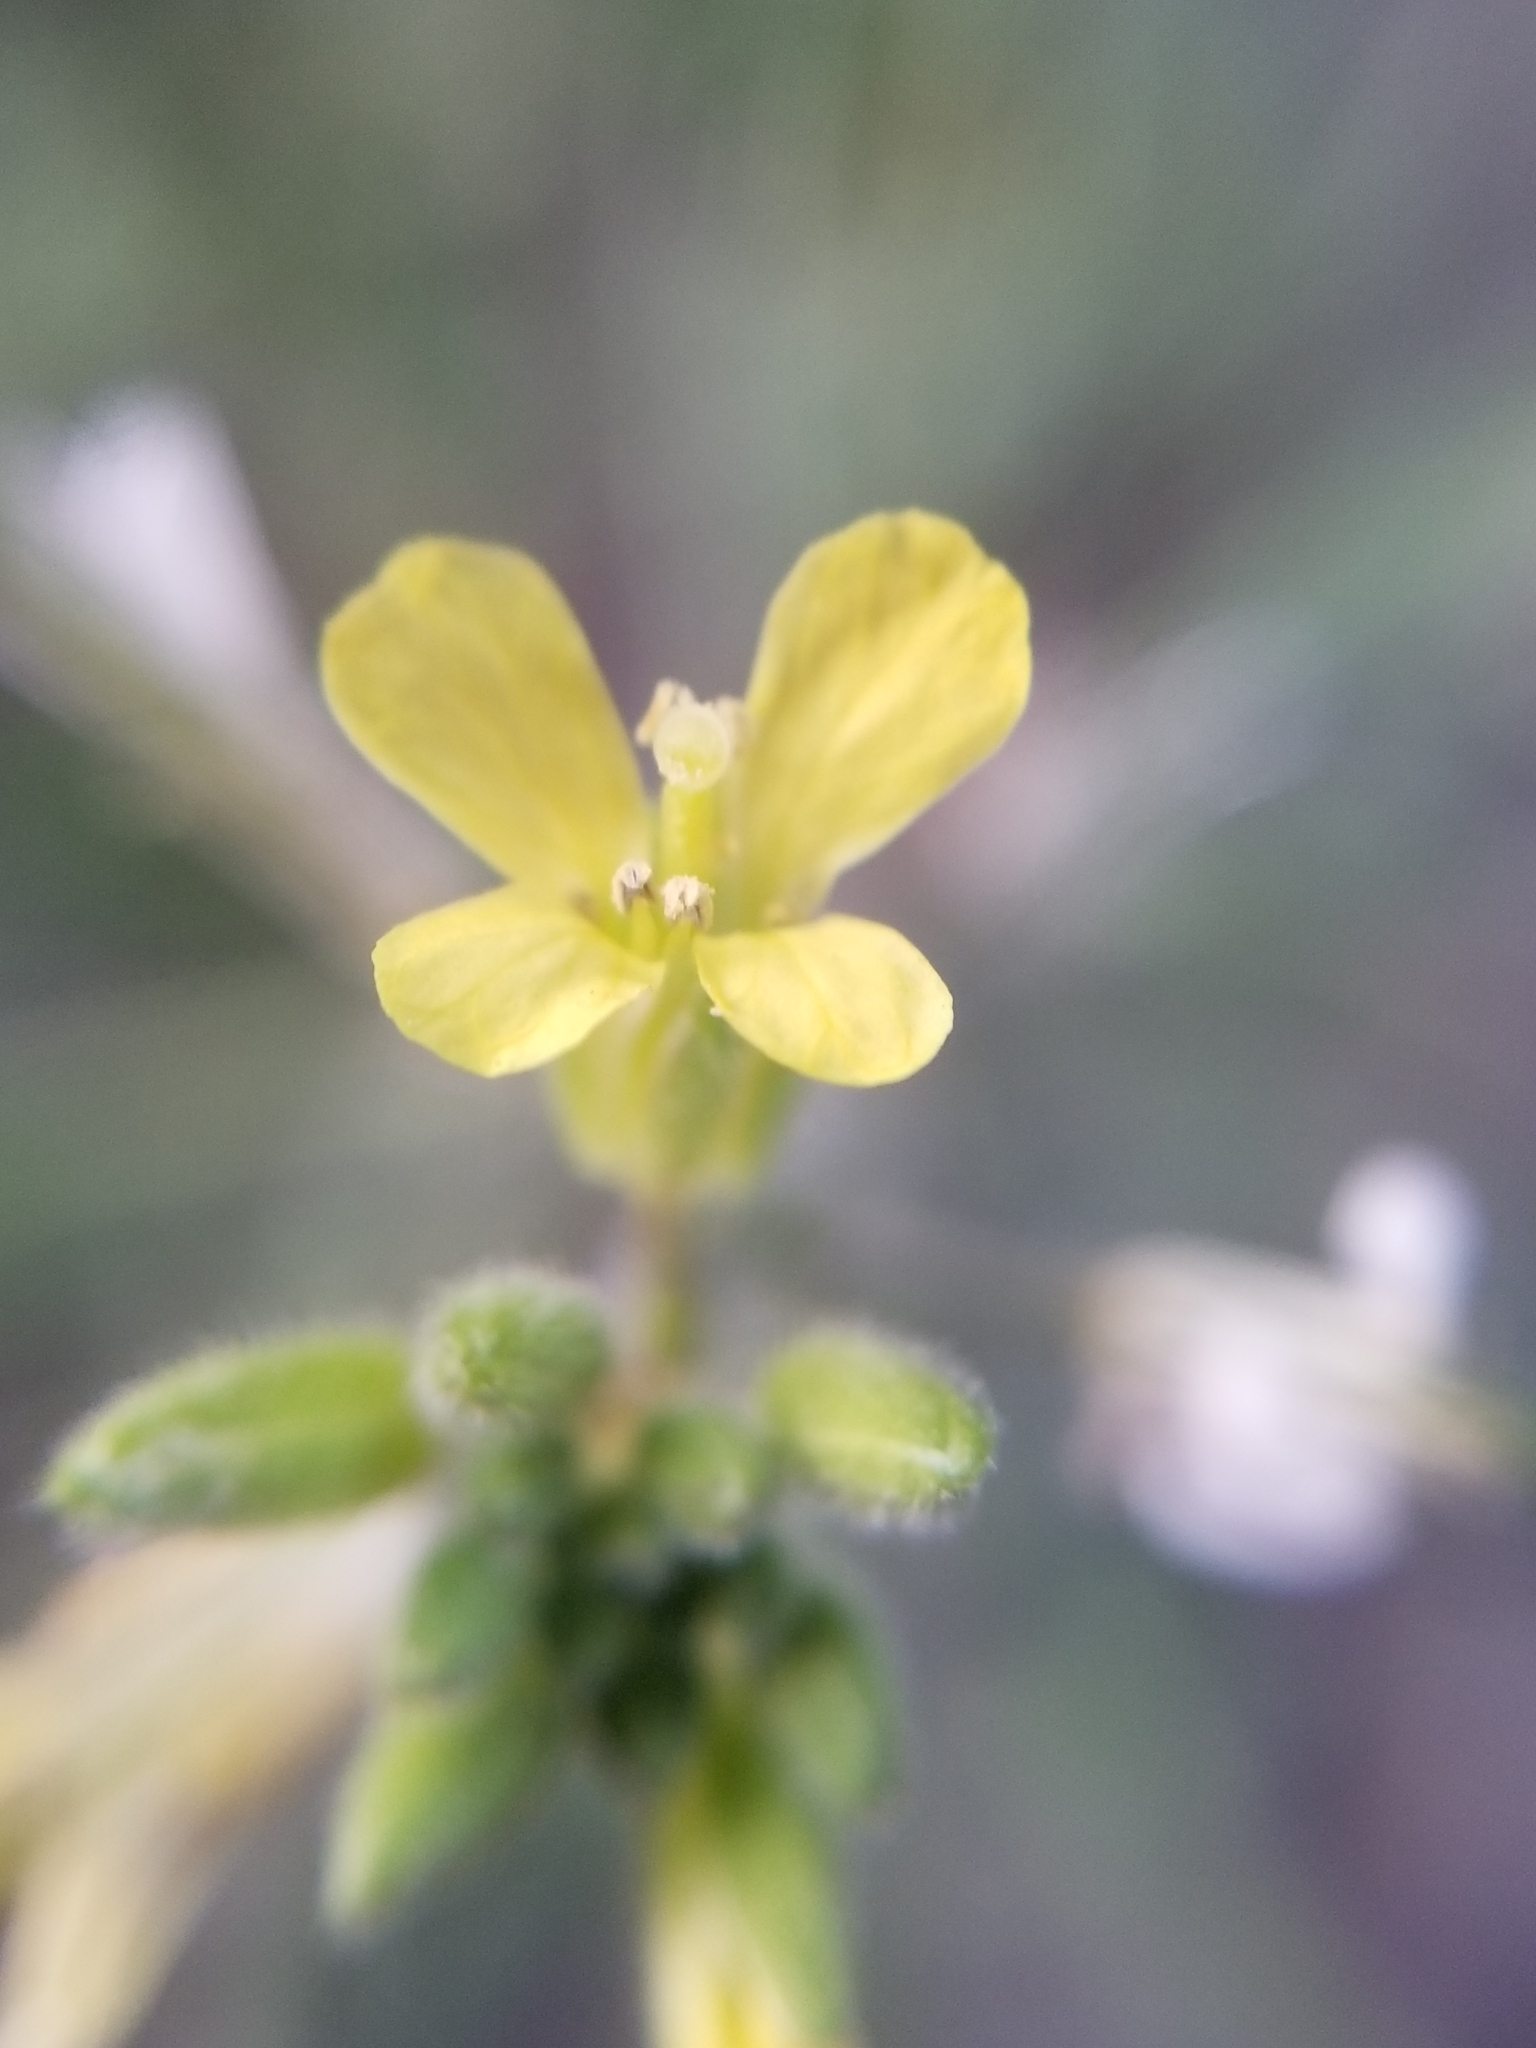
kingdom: Plantae
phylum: Tracheophyta
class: Magnoliopsida
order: Brassicales
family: Brassicaceae
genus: Brassica
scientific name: Brassica tournefortii
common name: Pale cabbage
